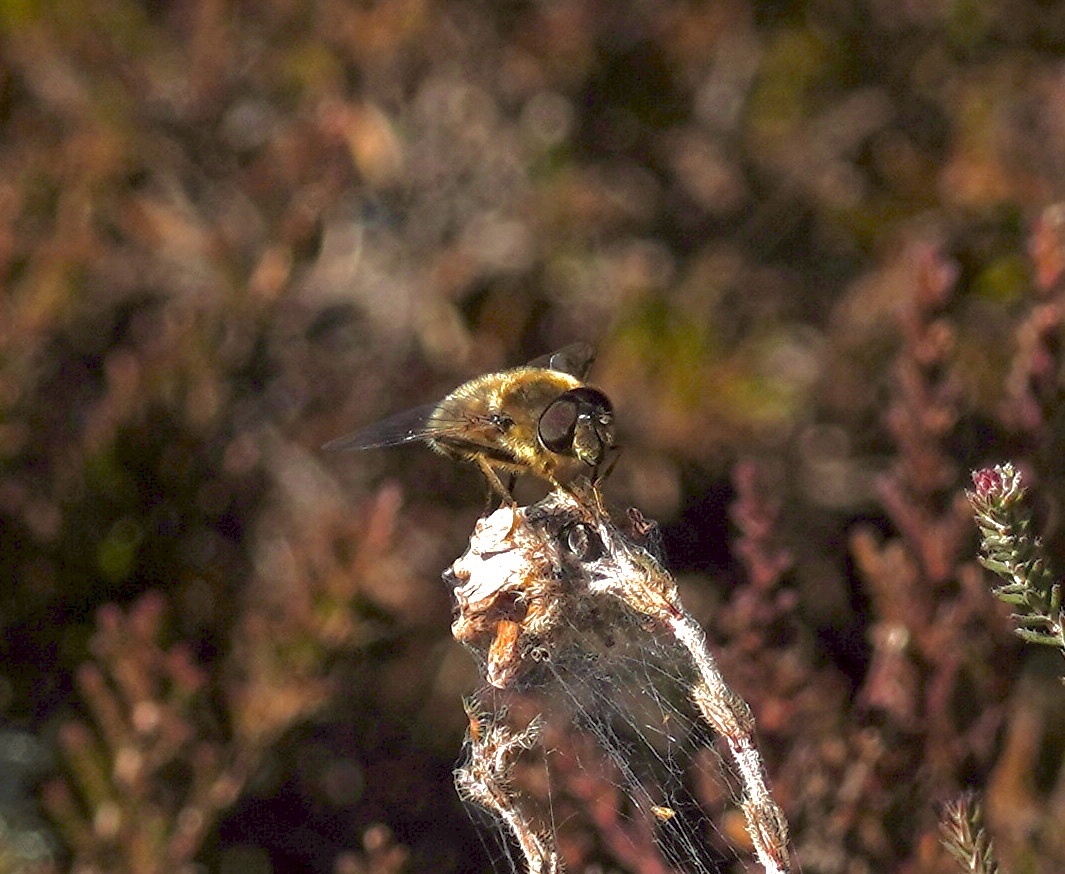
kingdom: Animalia
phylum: Arthropoda
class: Insecta
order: Diptera
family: Syrphidae
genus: Eristalis
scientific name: Eristalis pertinax
